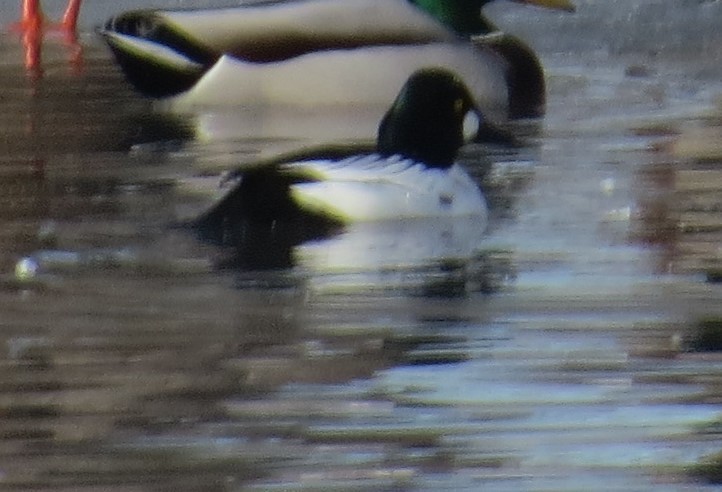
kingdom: Animalia
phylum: Chordata
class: Aves
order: Anseriformes
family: Anatidae
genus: Bucephala
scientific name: Bucephala clangula
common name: Common goldeneye
